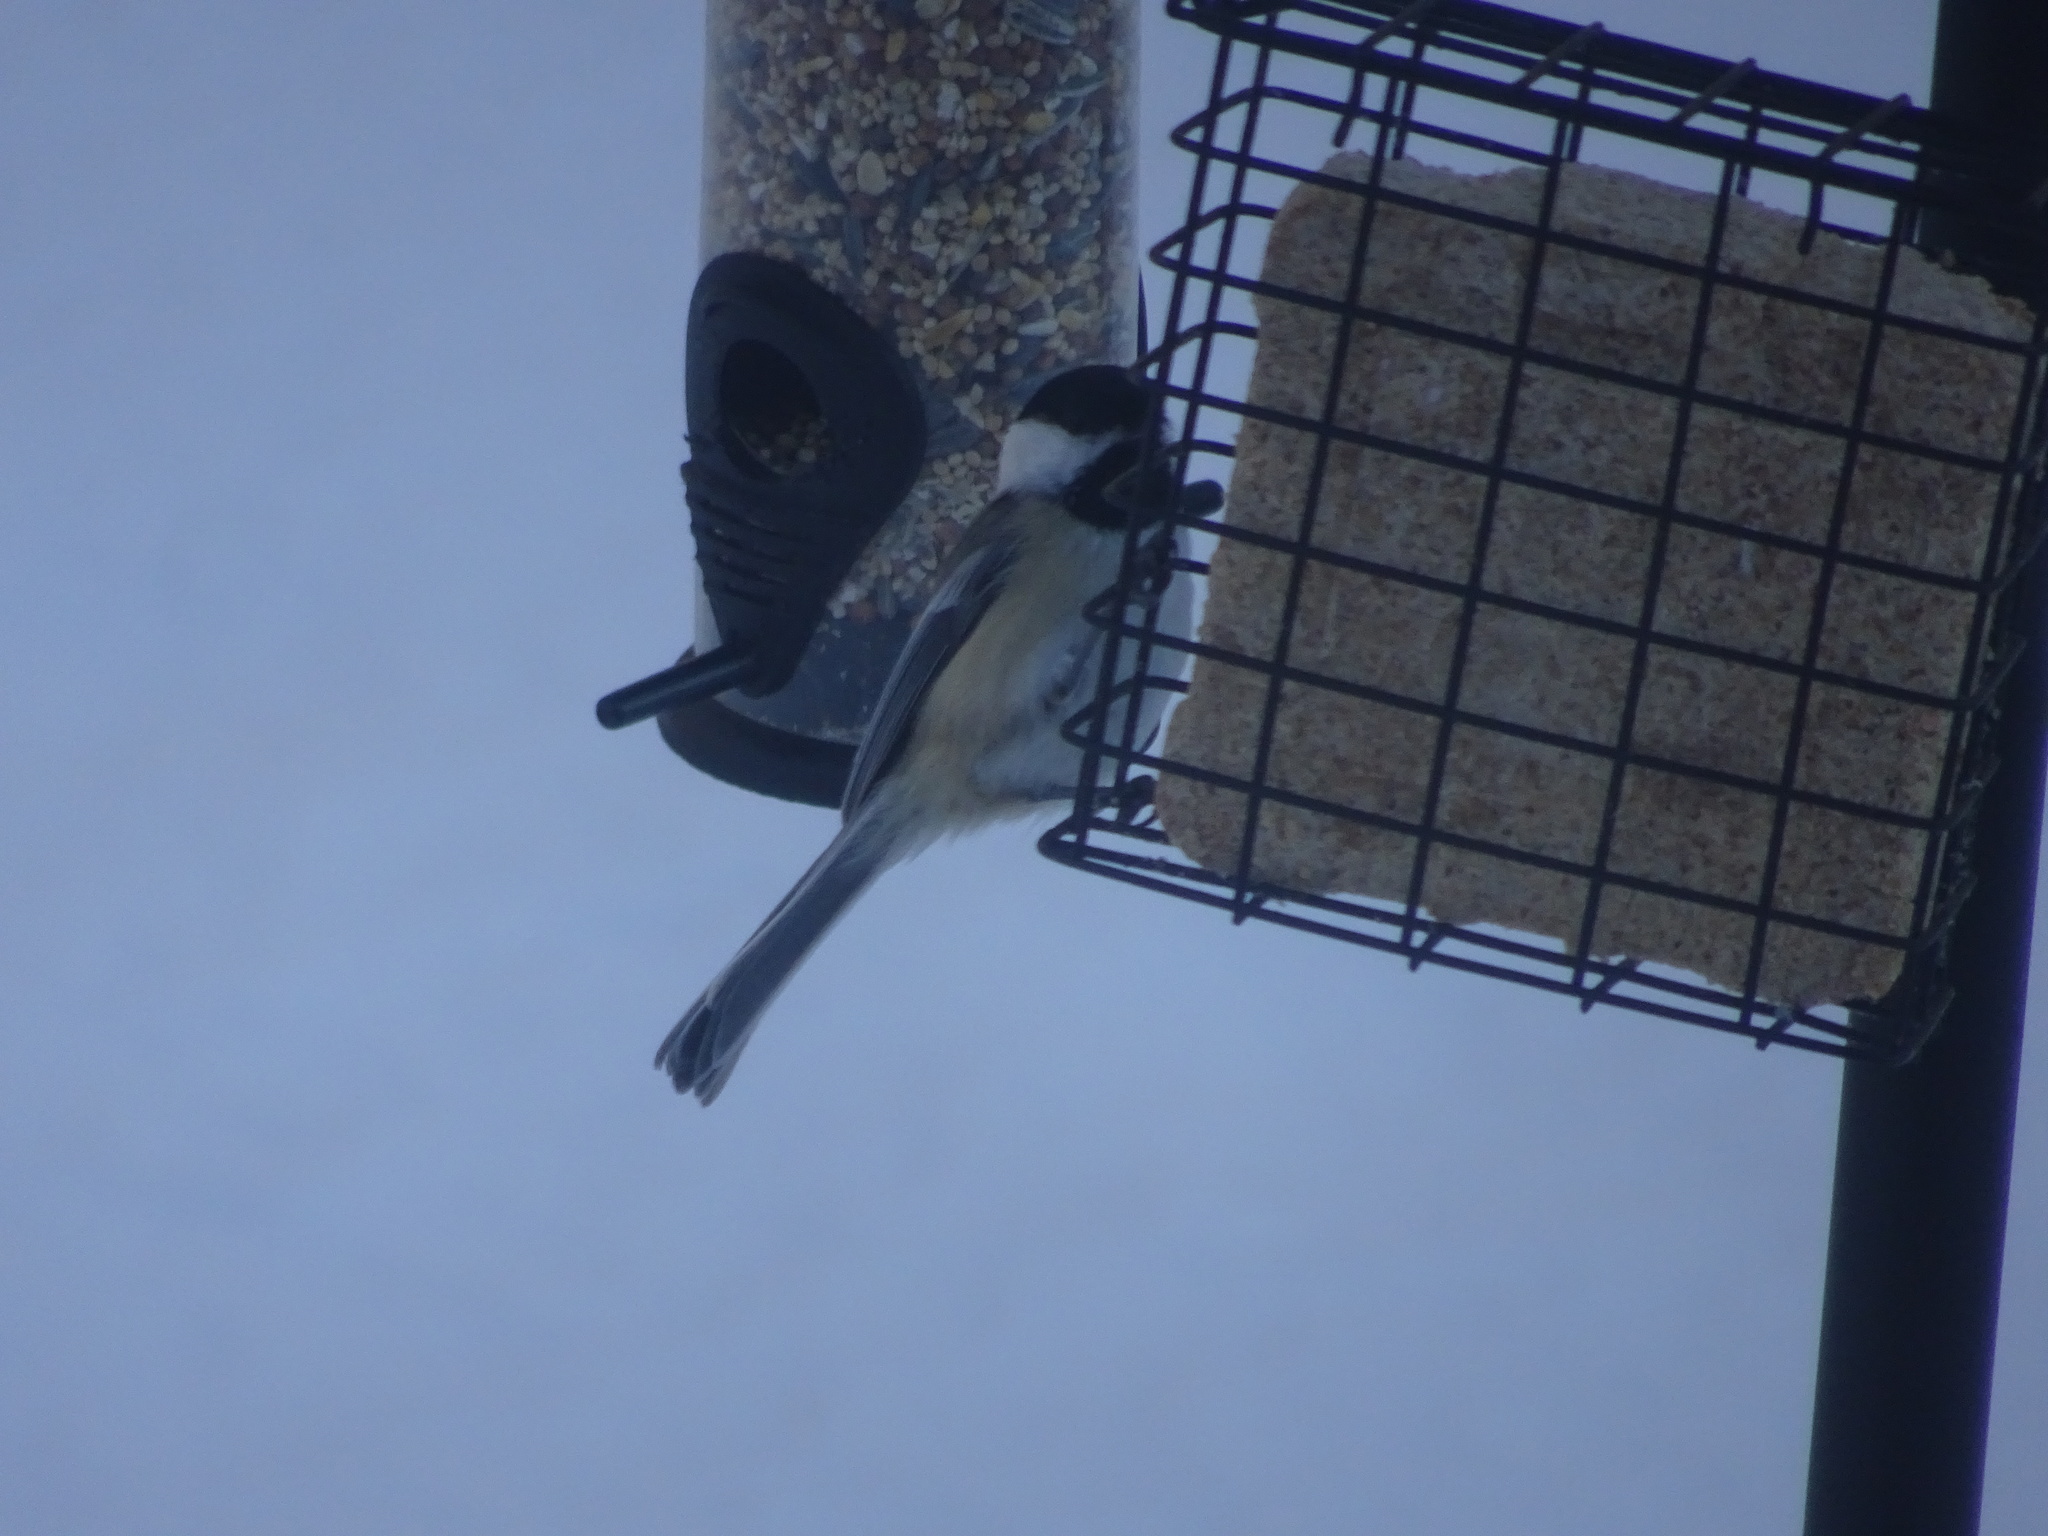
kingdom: Animalia
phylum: Chordata
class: Aves
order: Passeriformes
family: Paridae
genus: Poecile
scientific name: Poecile atricapillus
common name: Black-capped chickadee
